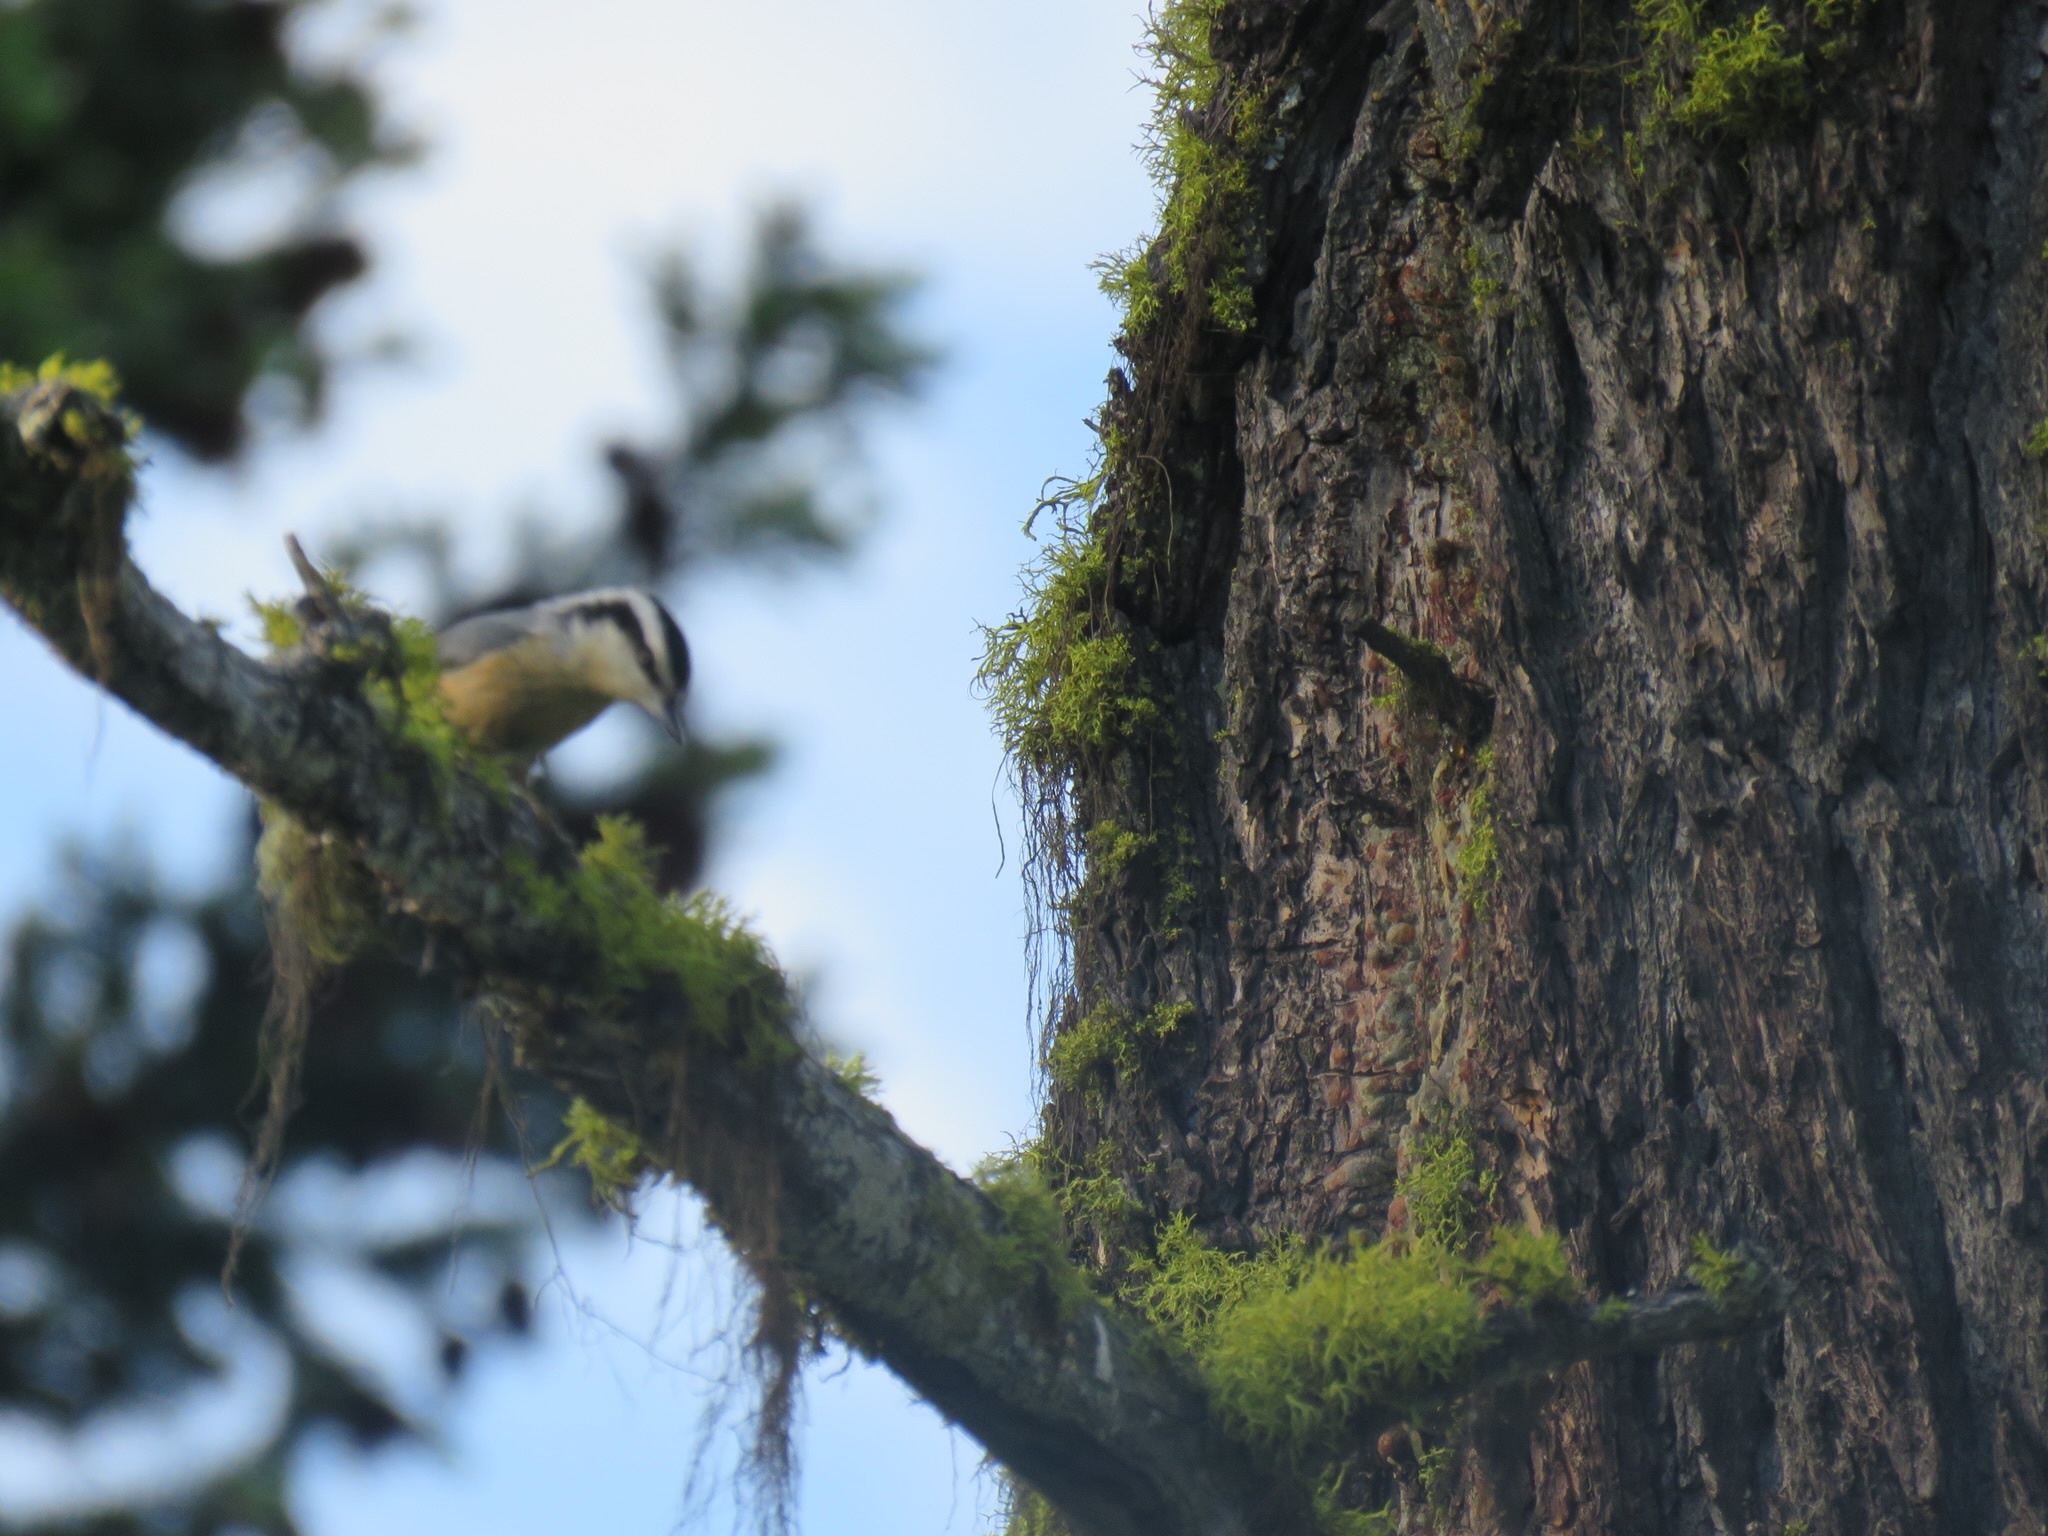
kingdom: Animalia
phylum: Chordata
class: Aves
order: Passeriformes
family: Sittidae
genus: Sitta
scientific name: Sitta canadensis
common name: Red-breasted nuthatch
